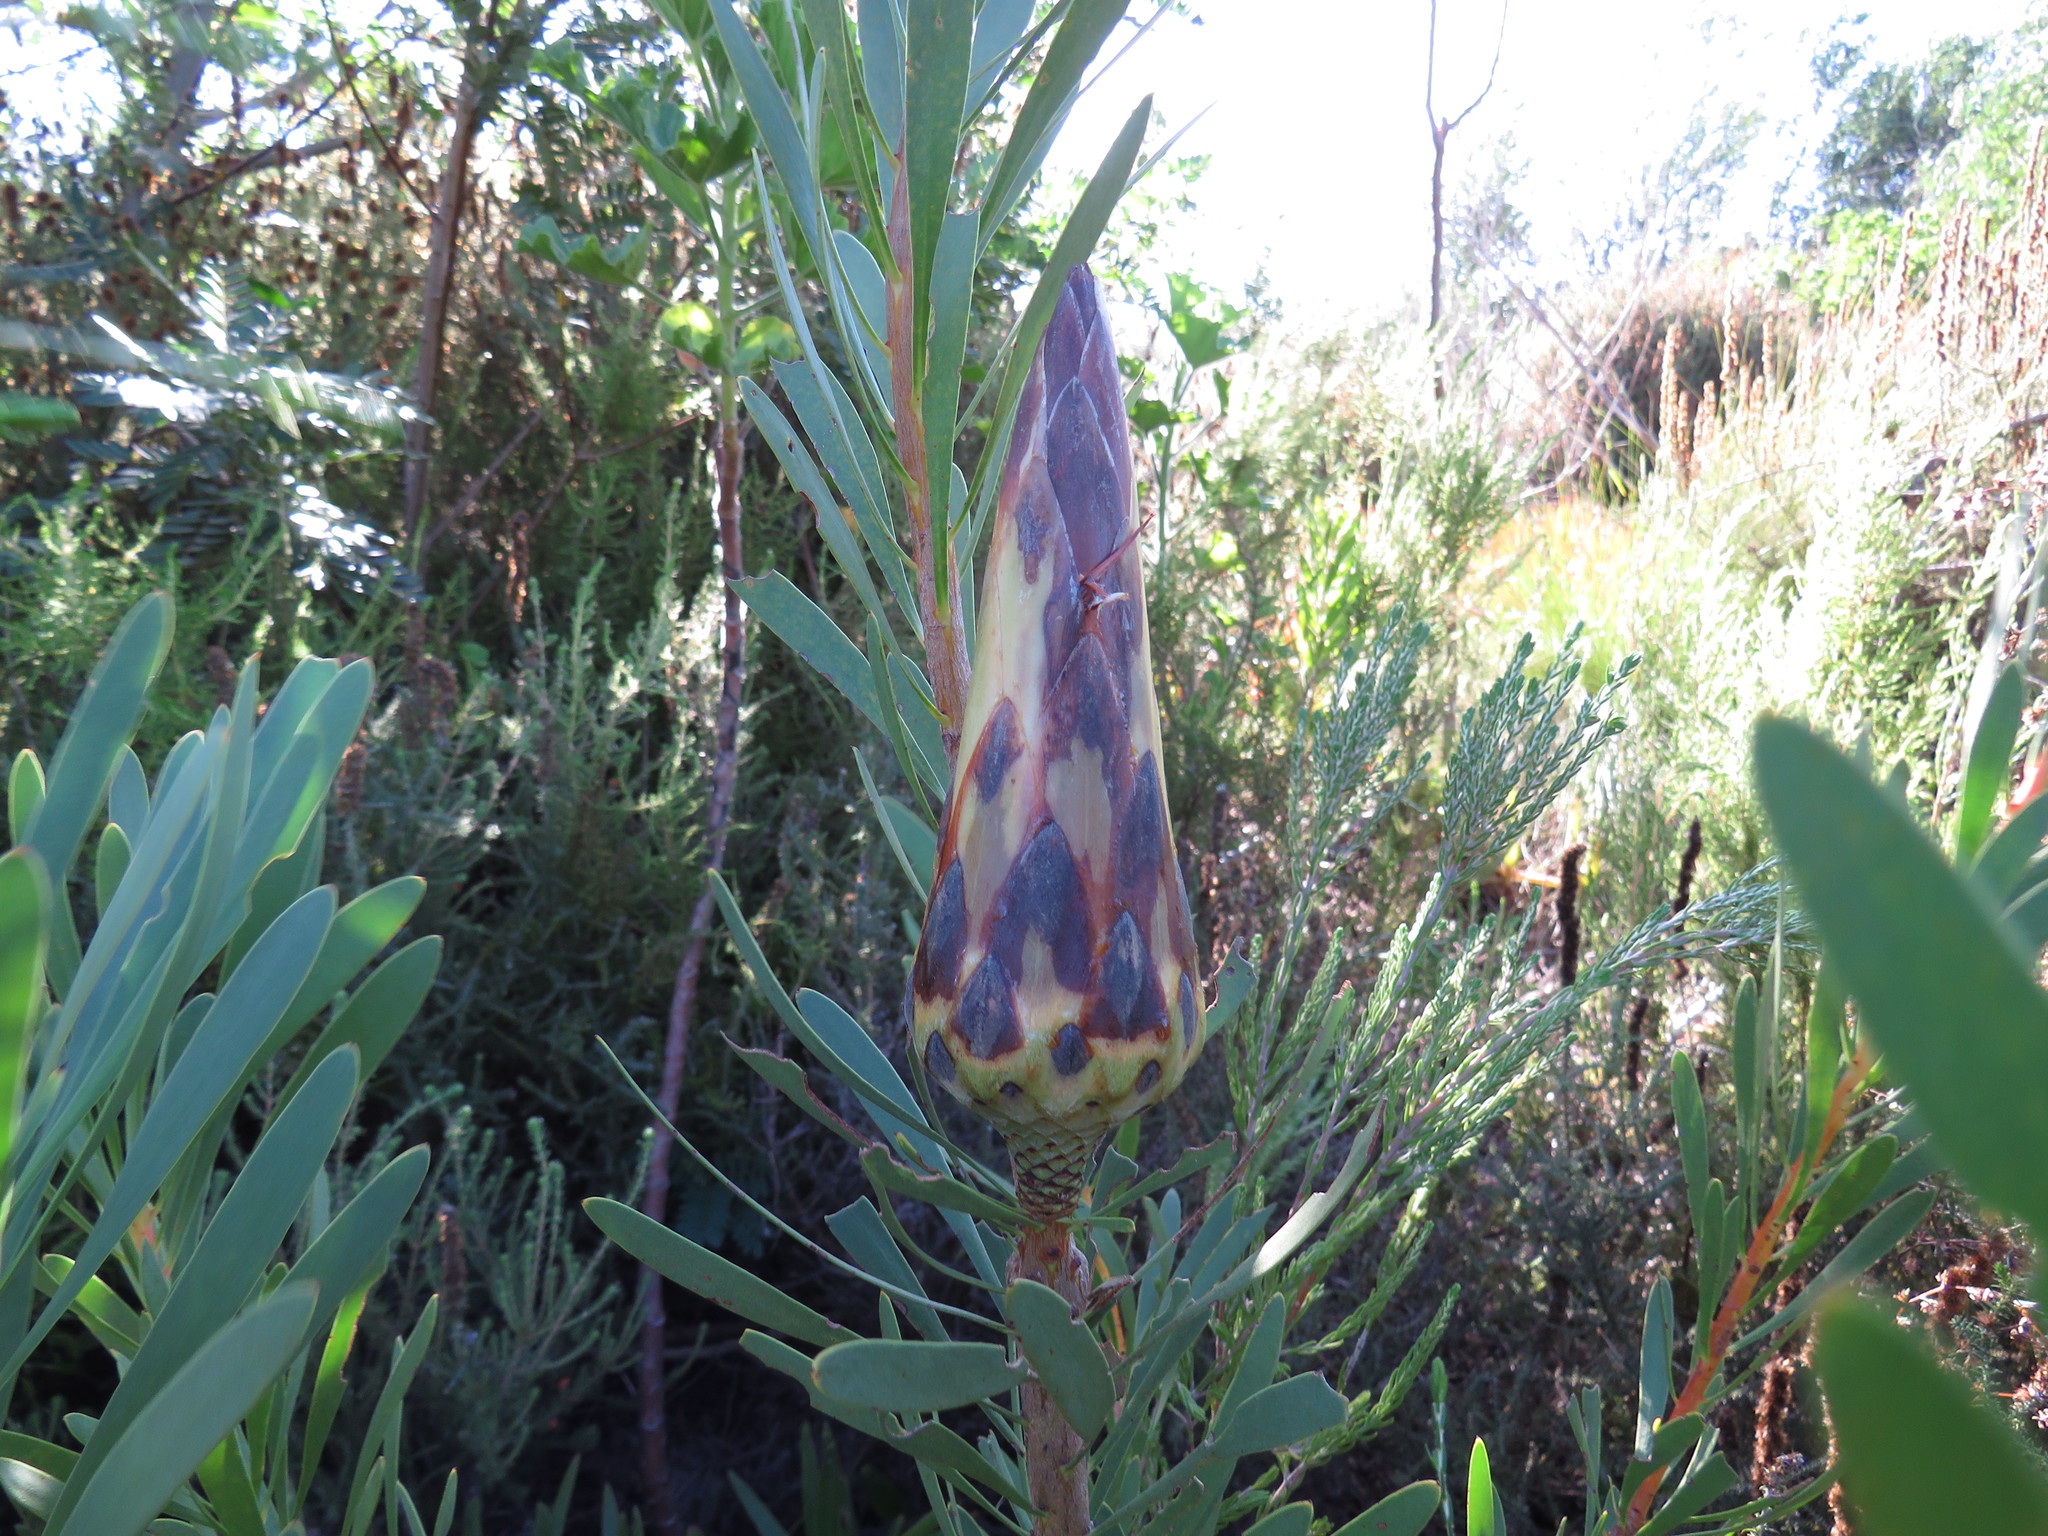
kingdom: Plantae
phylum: Tracheophyta
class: Magnoliopsida
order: Proteales
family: Proteaceae
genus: Protea
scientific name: Protea repens
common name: Sugarbush
